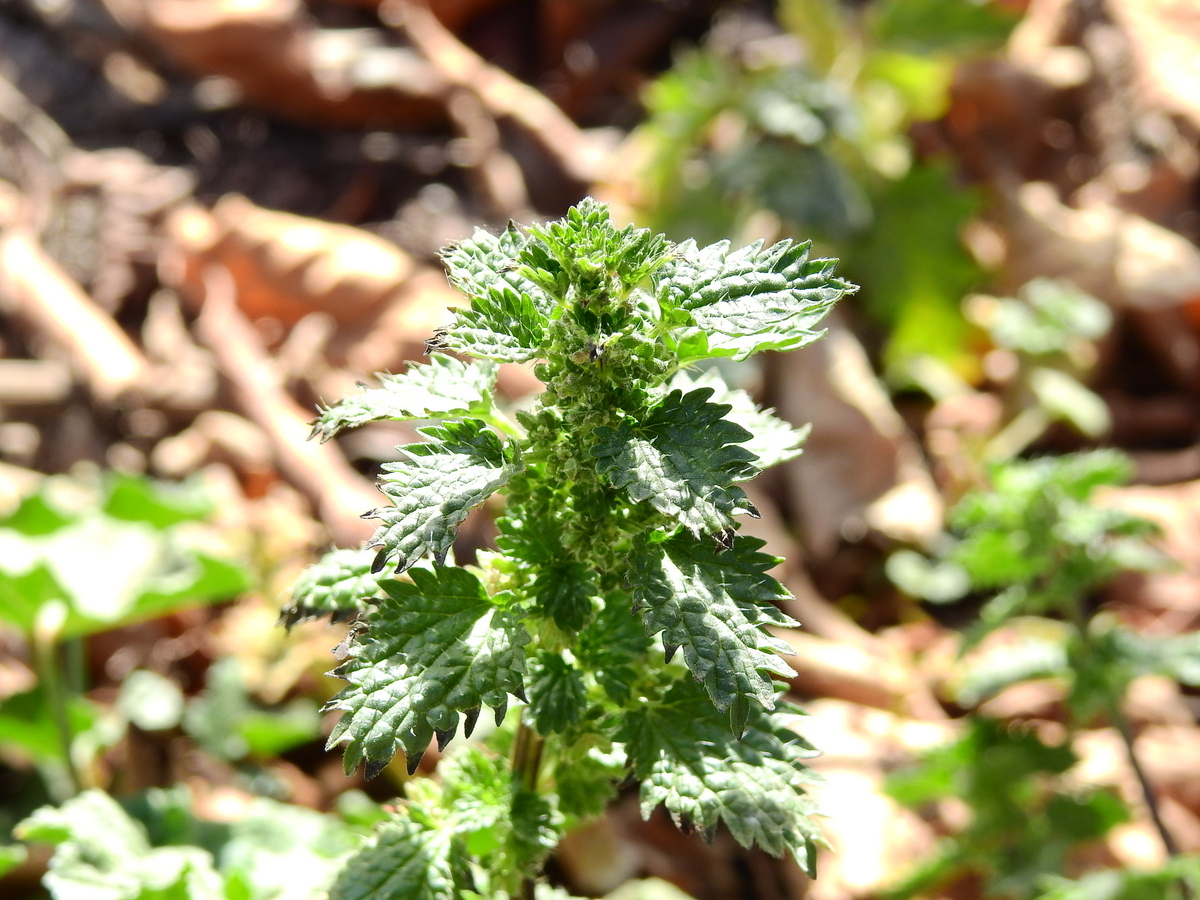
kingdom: Plantae
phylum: Tracheophyta
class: Magnoliopsida
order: Rosales
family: Urticaceae
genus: Urtica
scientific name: Urtica urens
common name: Dwarf nettle
